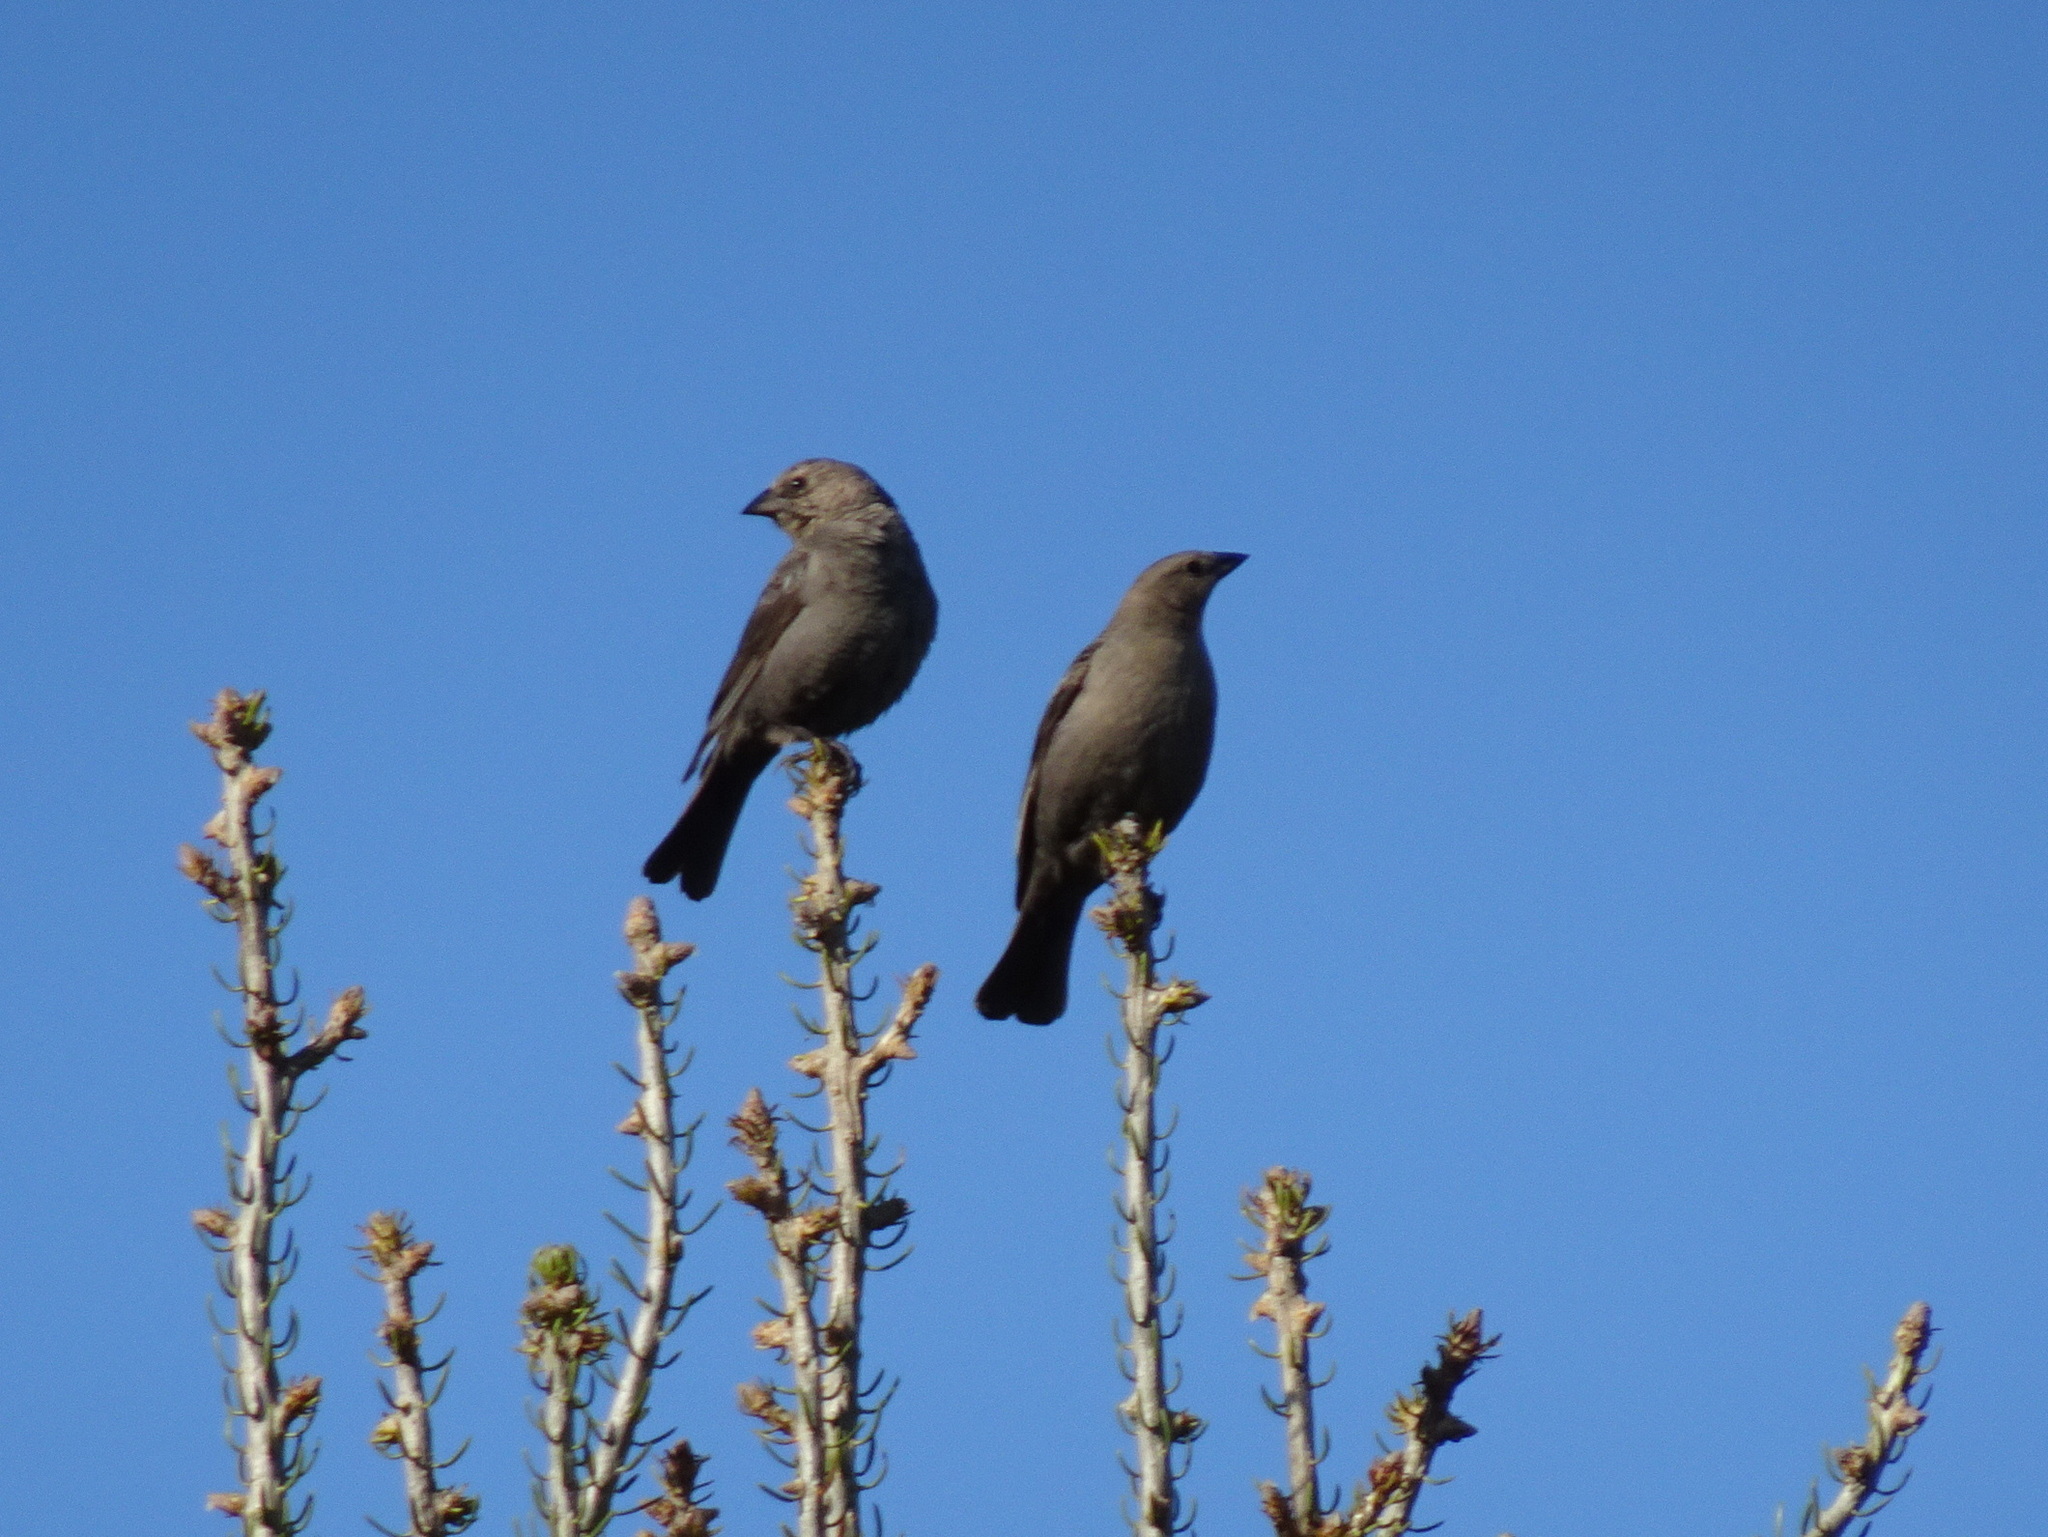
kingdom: Animalia
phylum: Chordata
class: Aves
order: Passeriformes
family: Icteridae
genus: Molothrus
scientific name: Molothrus ater
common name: Brown-headed cowbird
